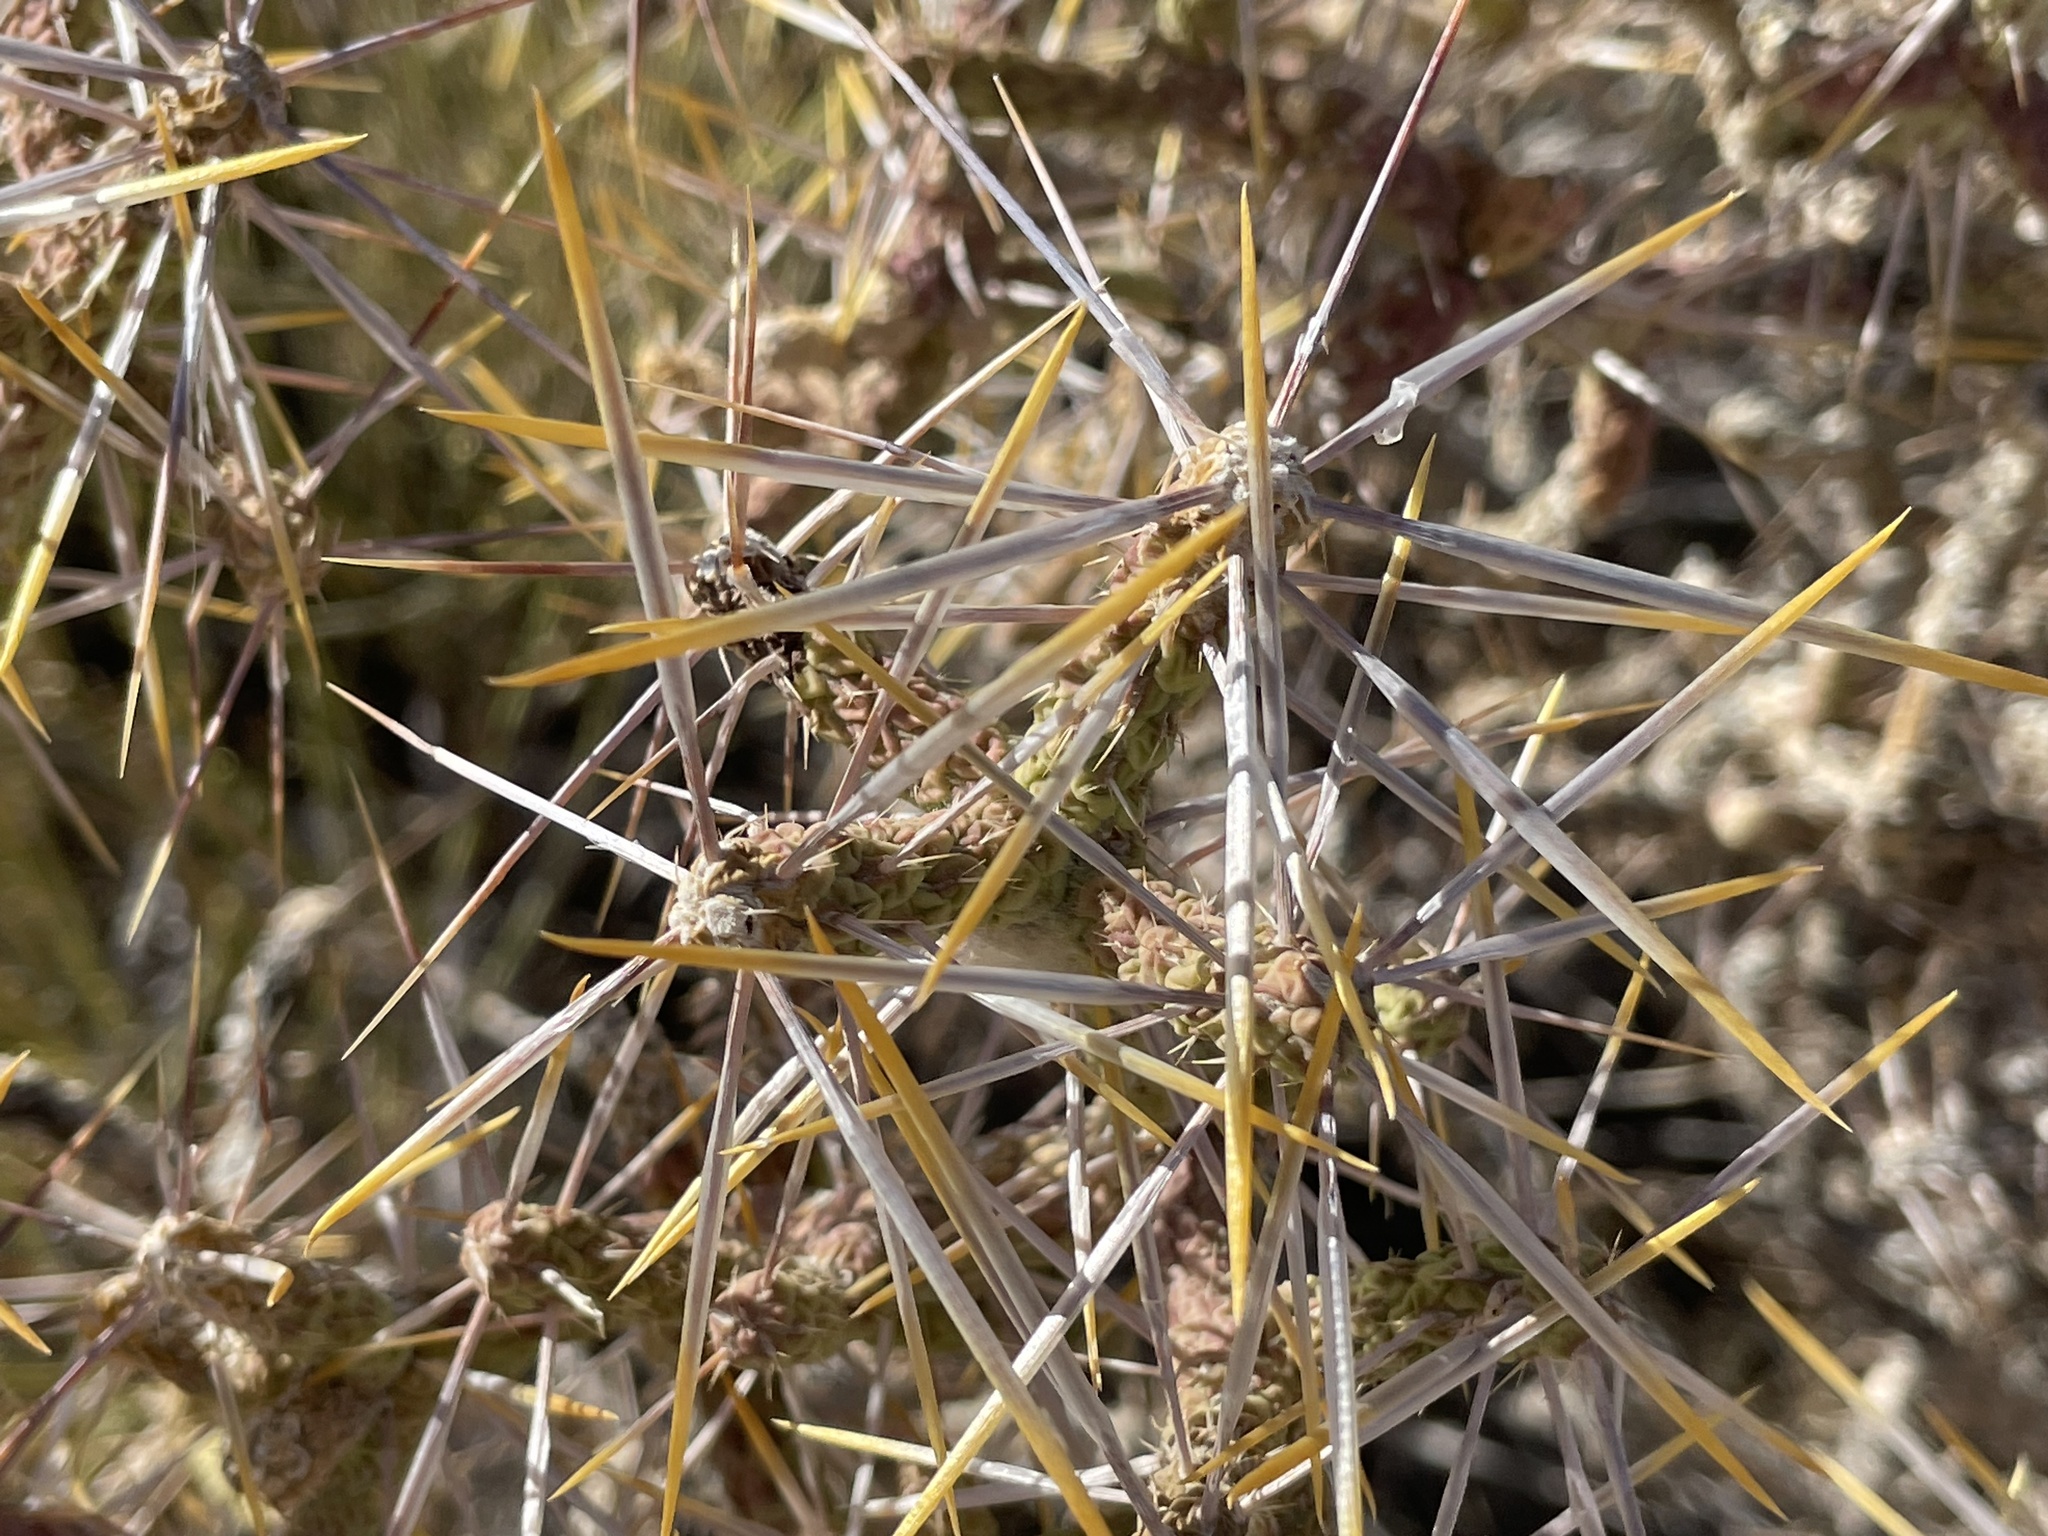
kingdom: Plantae
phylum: Tracheophyta
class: Magnoliopsida
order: Caryophyllales
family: Cactaceae
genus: Cylindropuntia
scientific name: Cylindropuntia ramosissima
